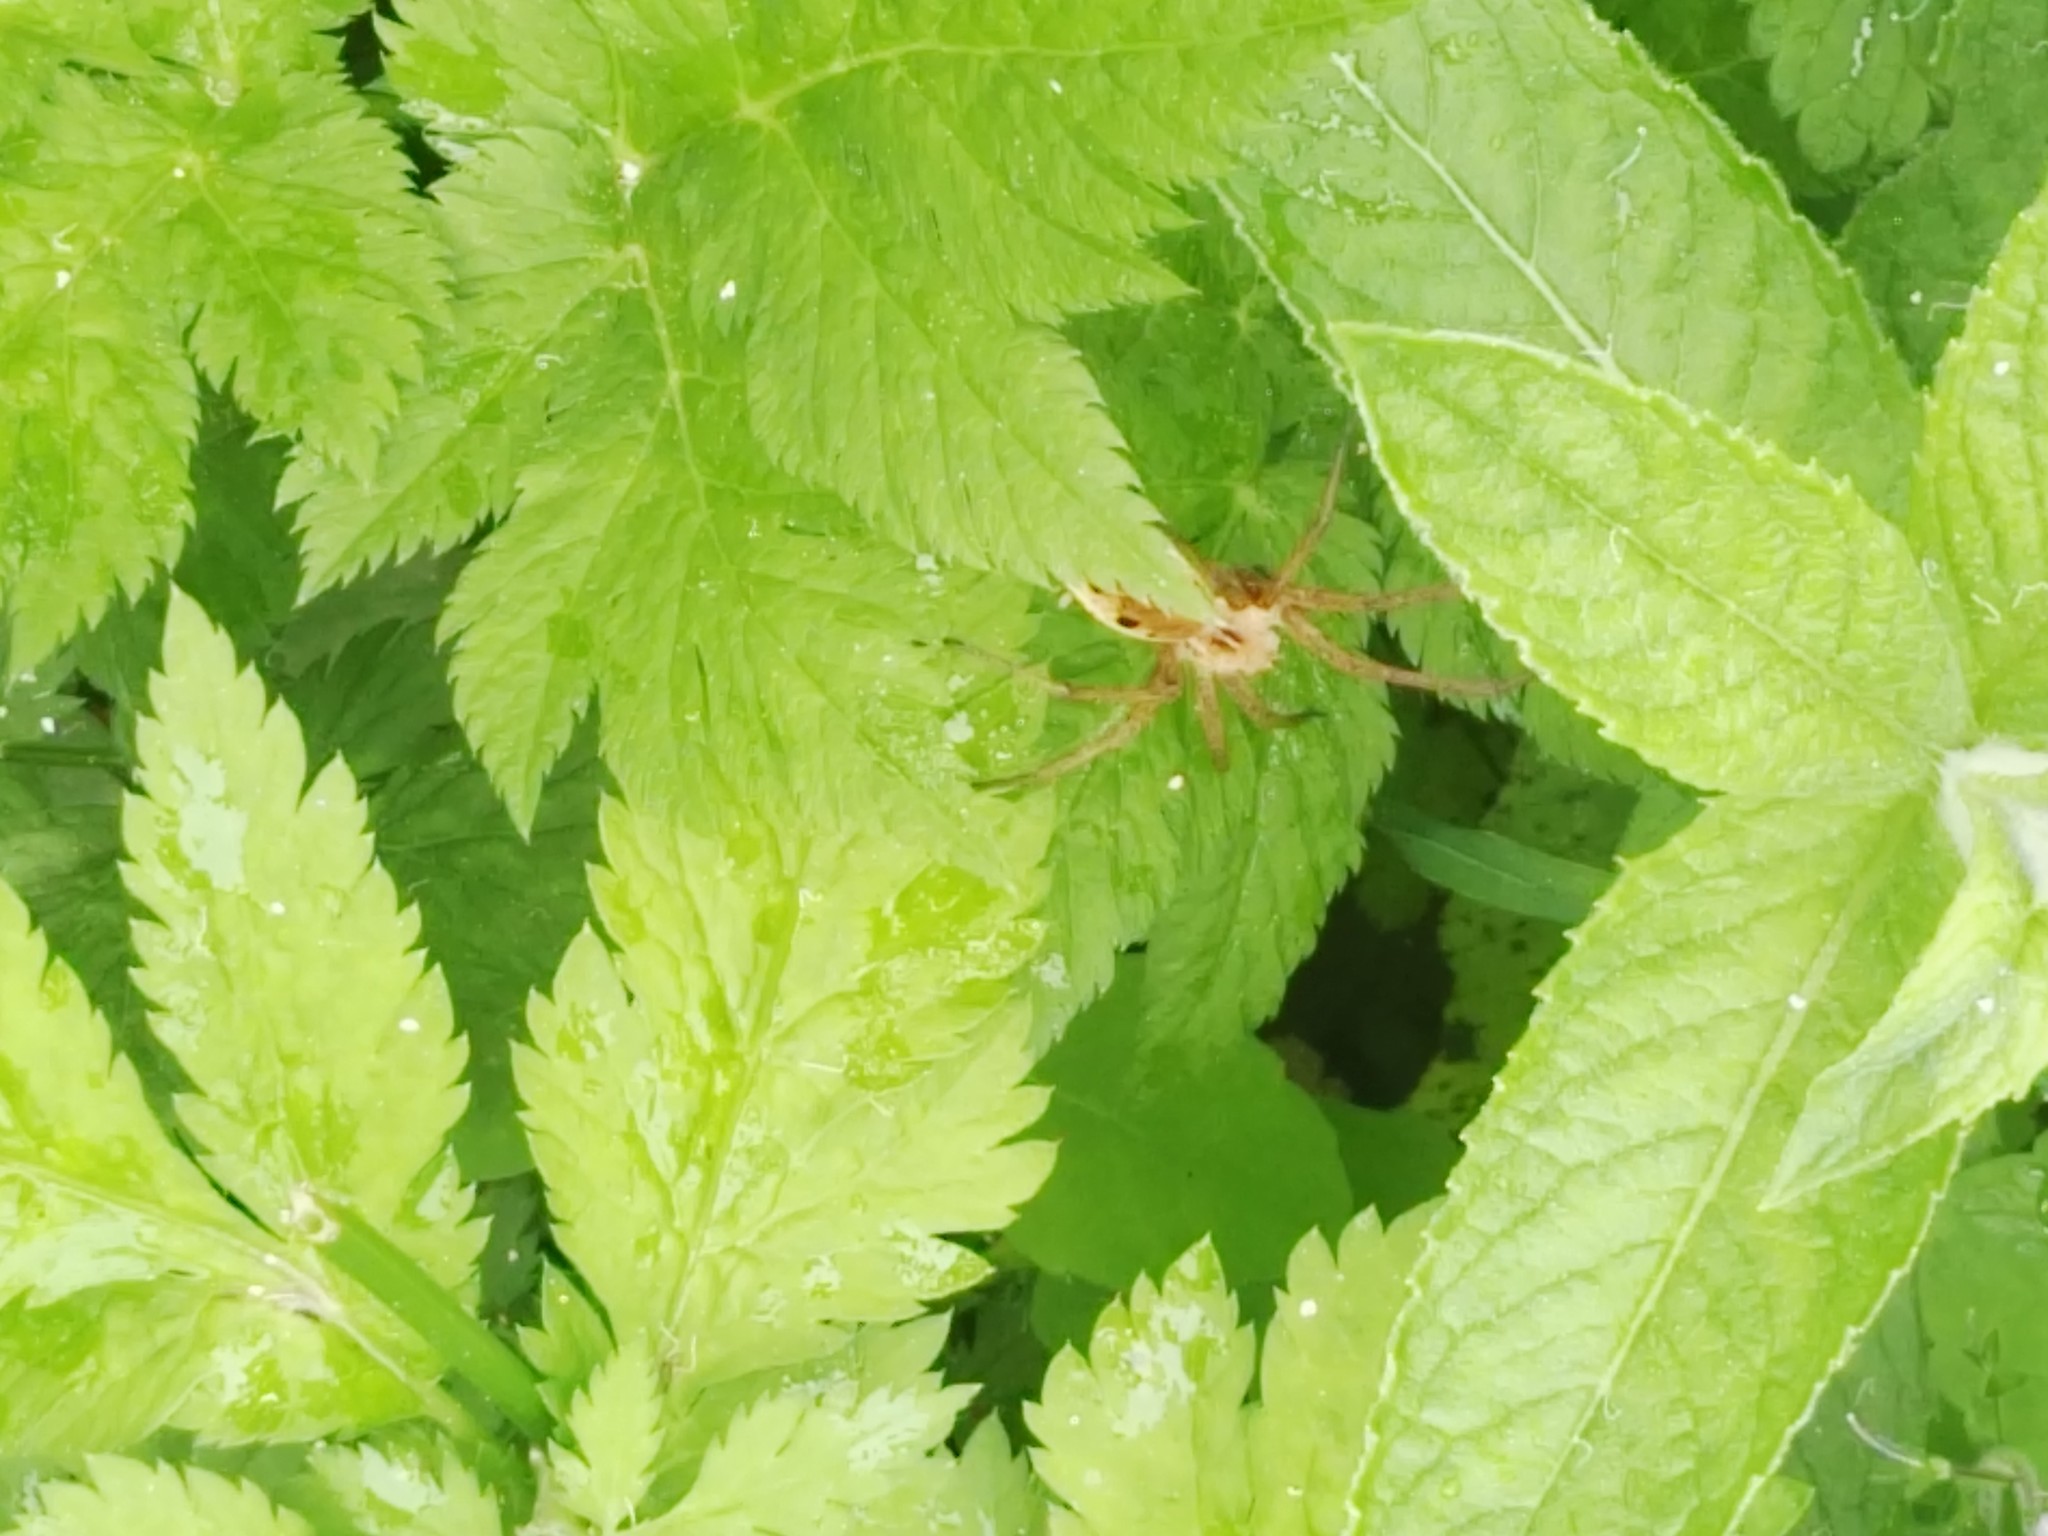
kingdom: Animalia
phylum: Arthropoda
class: Arachnida
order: Araneae
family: Pisauridae
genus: Pisaura
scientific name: Pisaura mirabilis
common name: Tent spider
